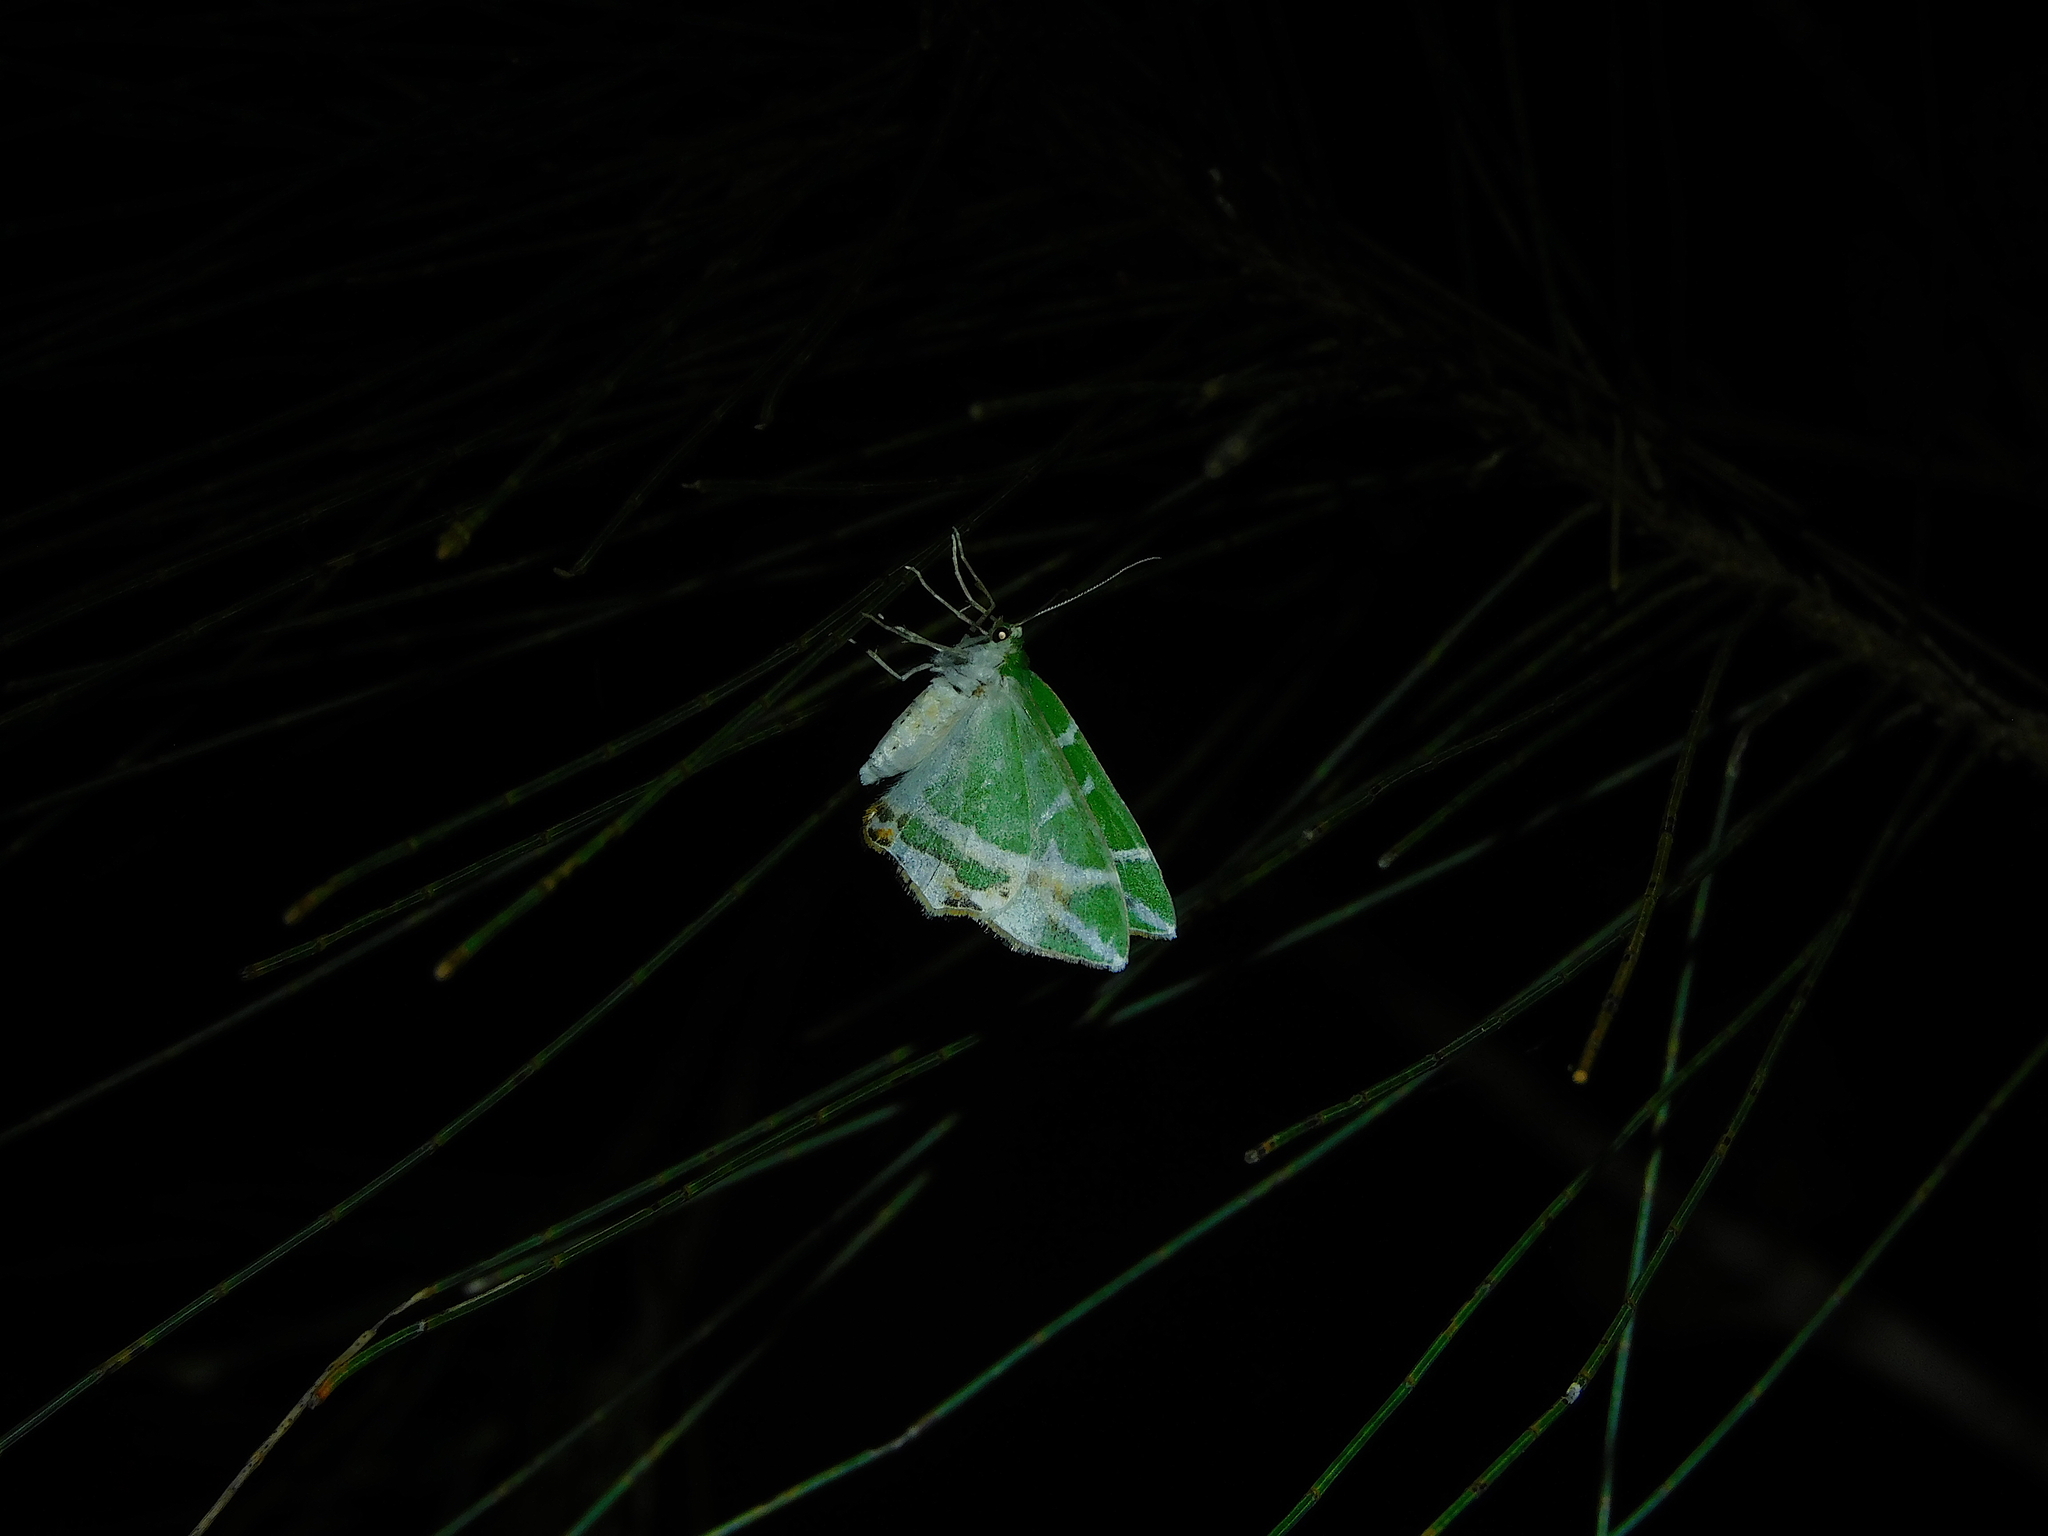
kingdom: Animalia
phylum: Arthropoda
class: Insecta
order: Lepidoptera
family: Geometridae
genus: Chlorodes
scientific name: Chlorodes boisduvalaria
